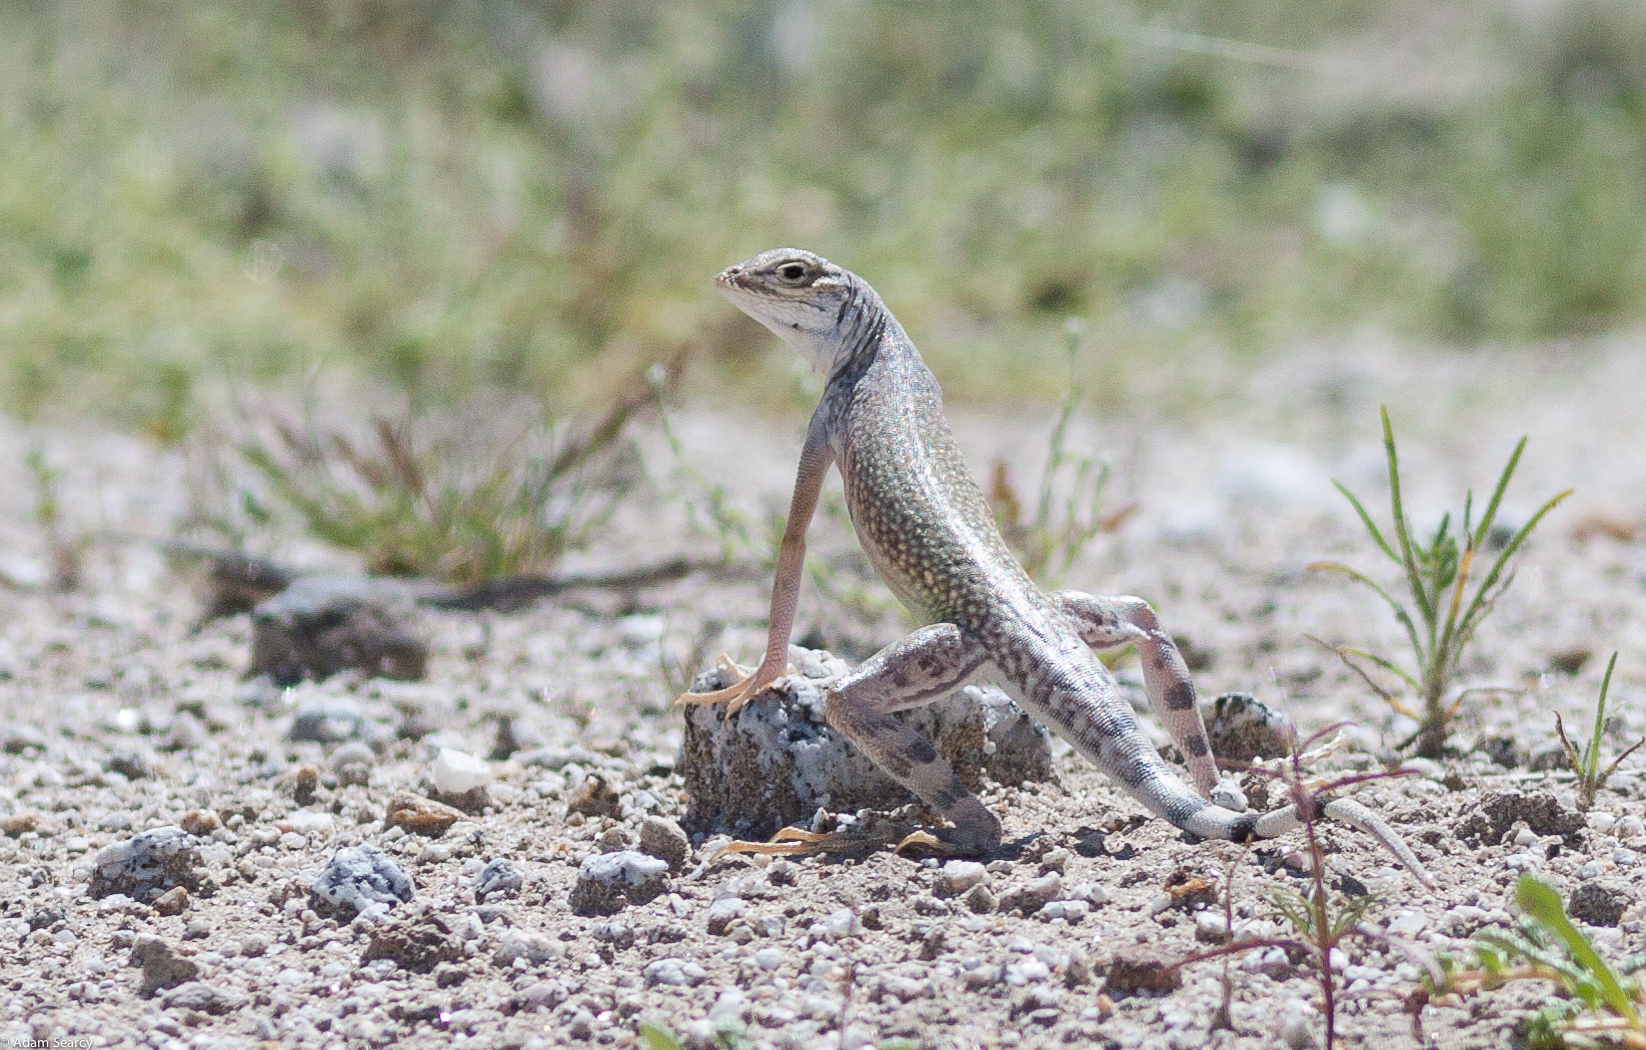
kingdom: Animalia
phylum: Chordata
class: Squamata
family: Phrynosomatidae
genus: Callisaurus
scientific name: Callisaurus draconoides
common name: Zebra-tailed lizard
